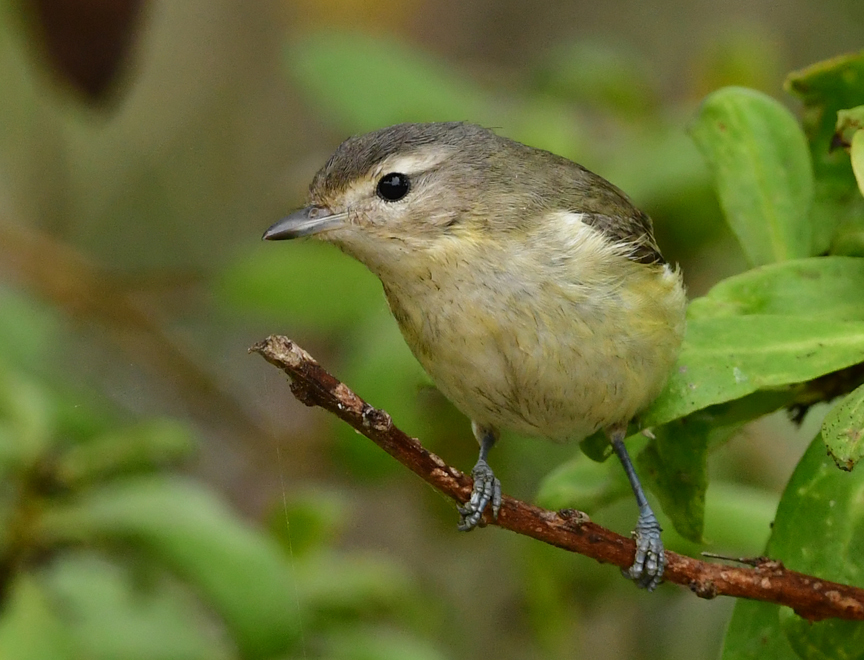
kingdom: Animalia
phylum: Chordata
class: Aves
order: Passeriformes
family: Vireonidae
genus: Vireo
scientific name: Vireo gilvus
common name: Warbling vireo
